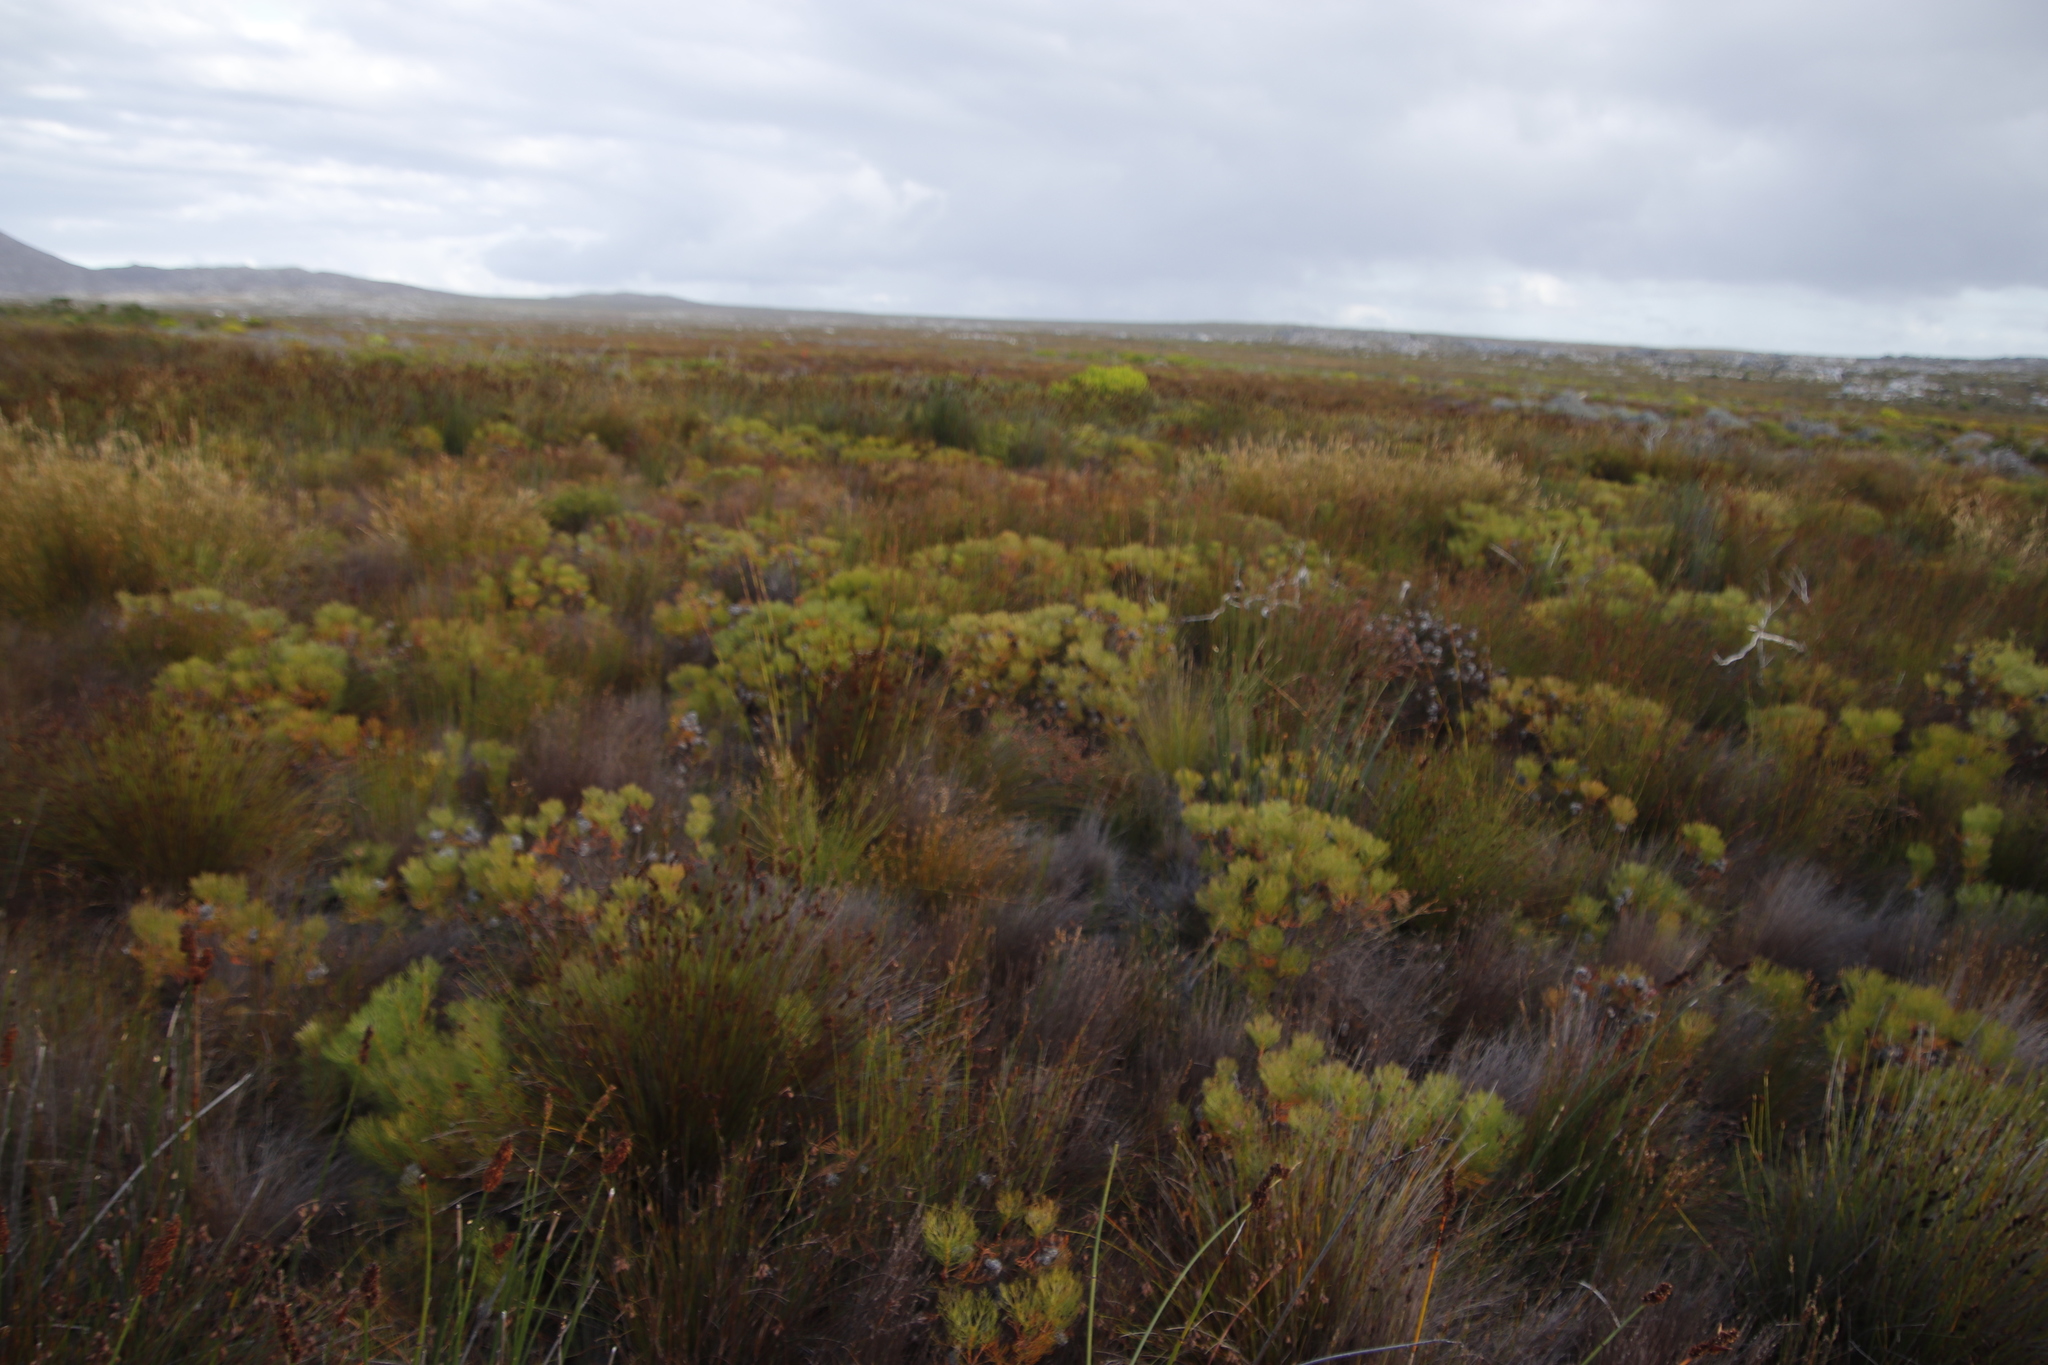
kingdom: Plantae
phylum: Tracheophyta
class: Magnoliopsida
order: Proteales
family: Proteaceae
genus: Serruria
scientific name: Serruria glomerata
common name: Cluster spiderhead
